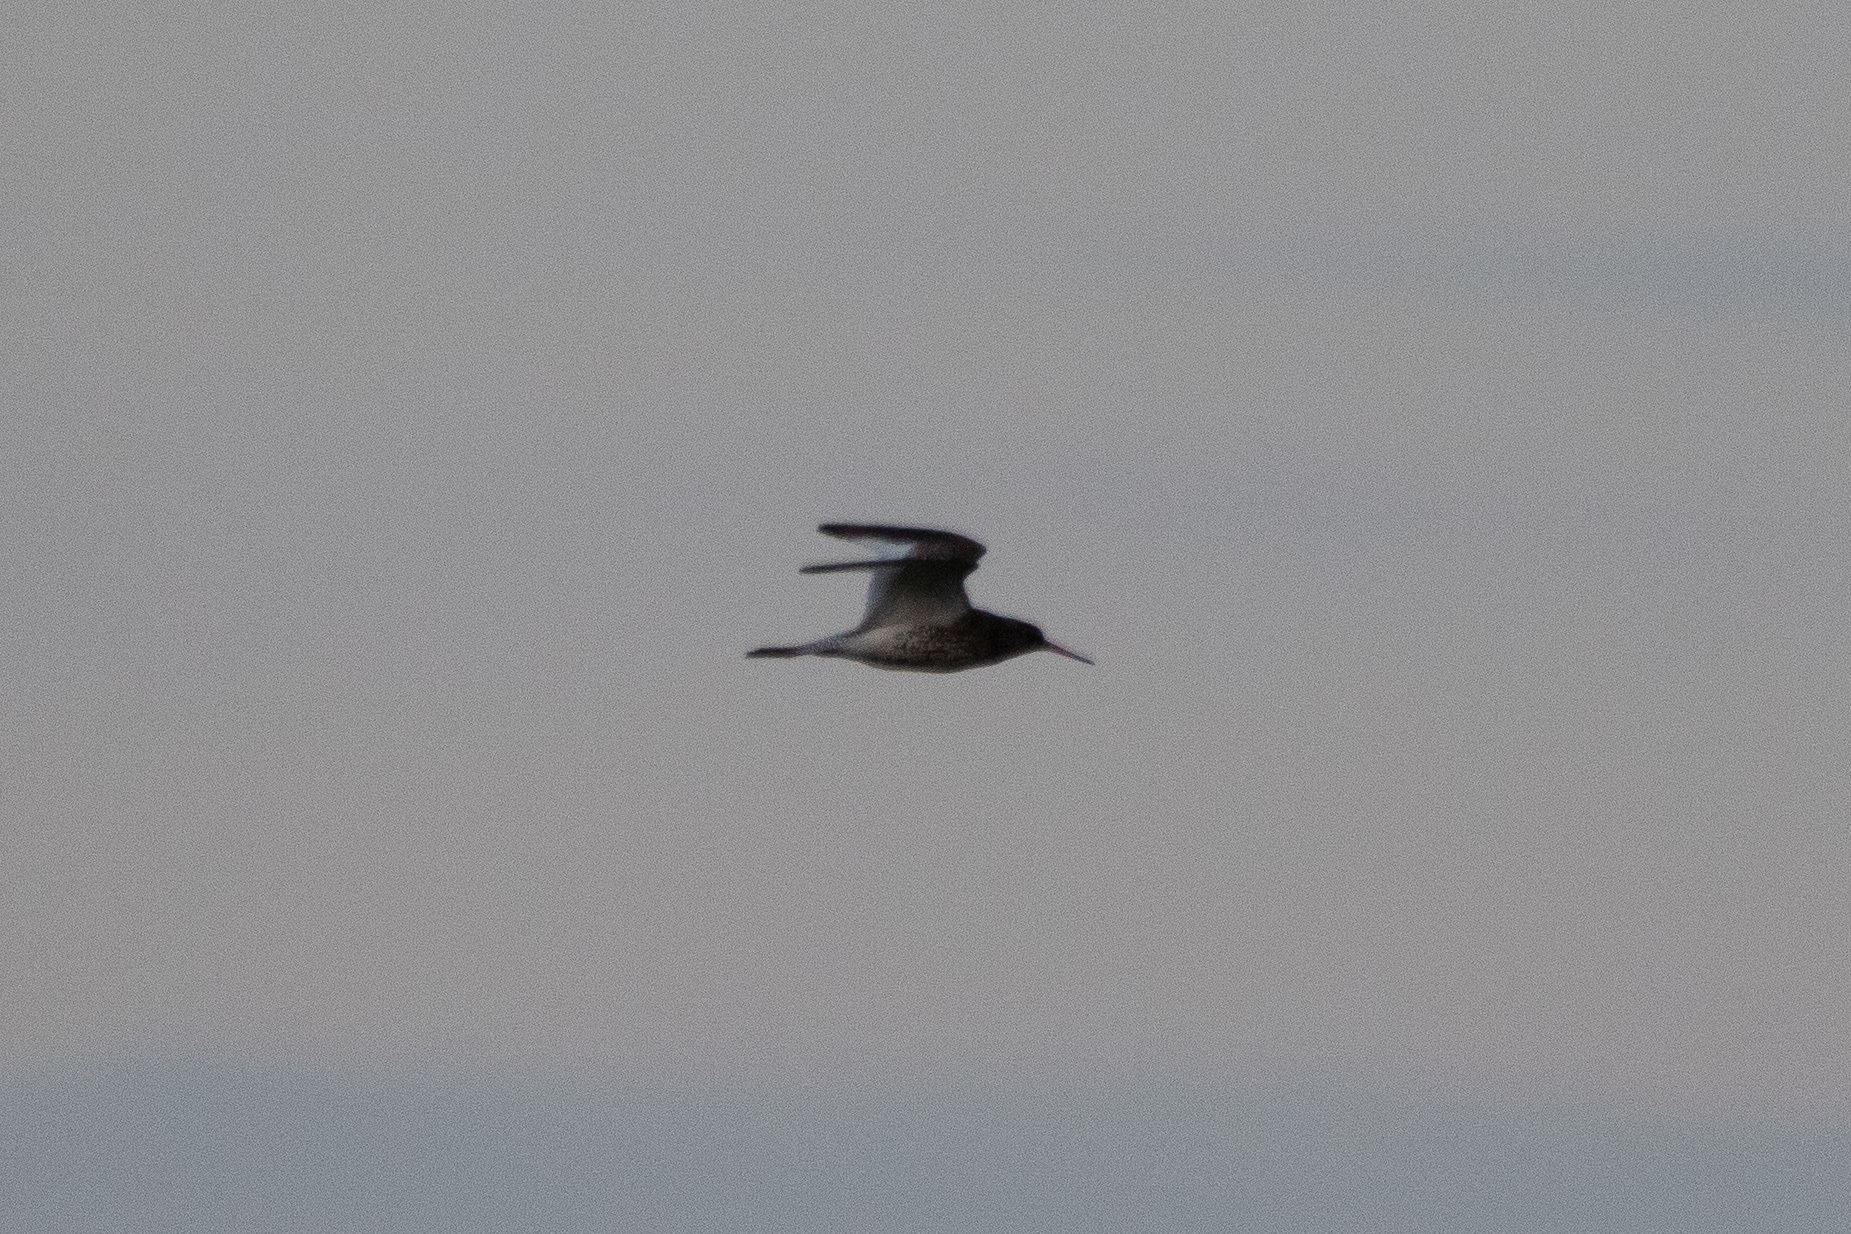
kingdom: Animalia
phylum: Chordata
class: Aves
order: Charadriiformes
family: Scolopacidae
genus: Tringa
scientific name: Tringa totanus
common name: Common redshank
